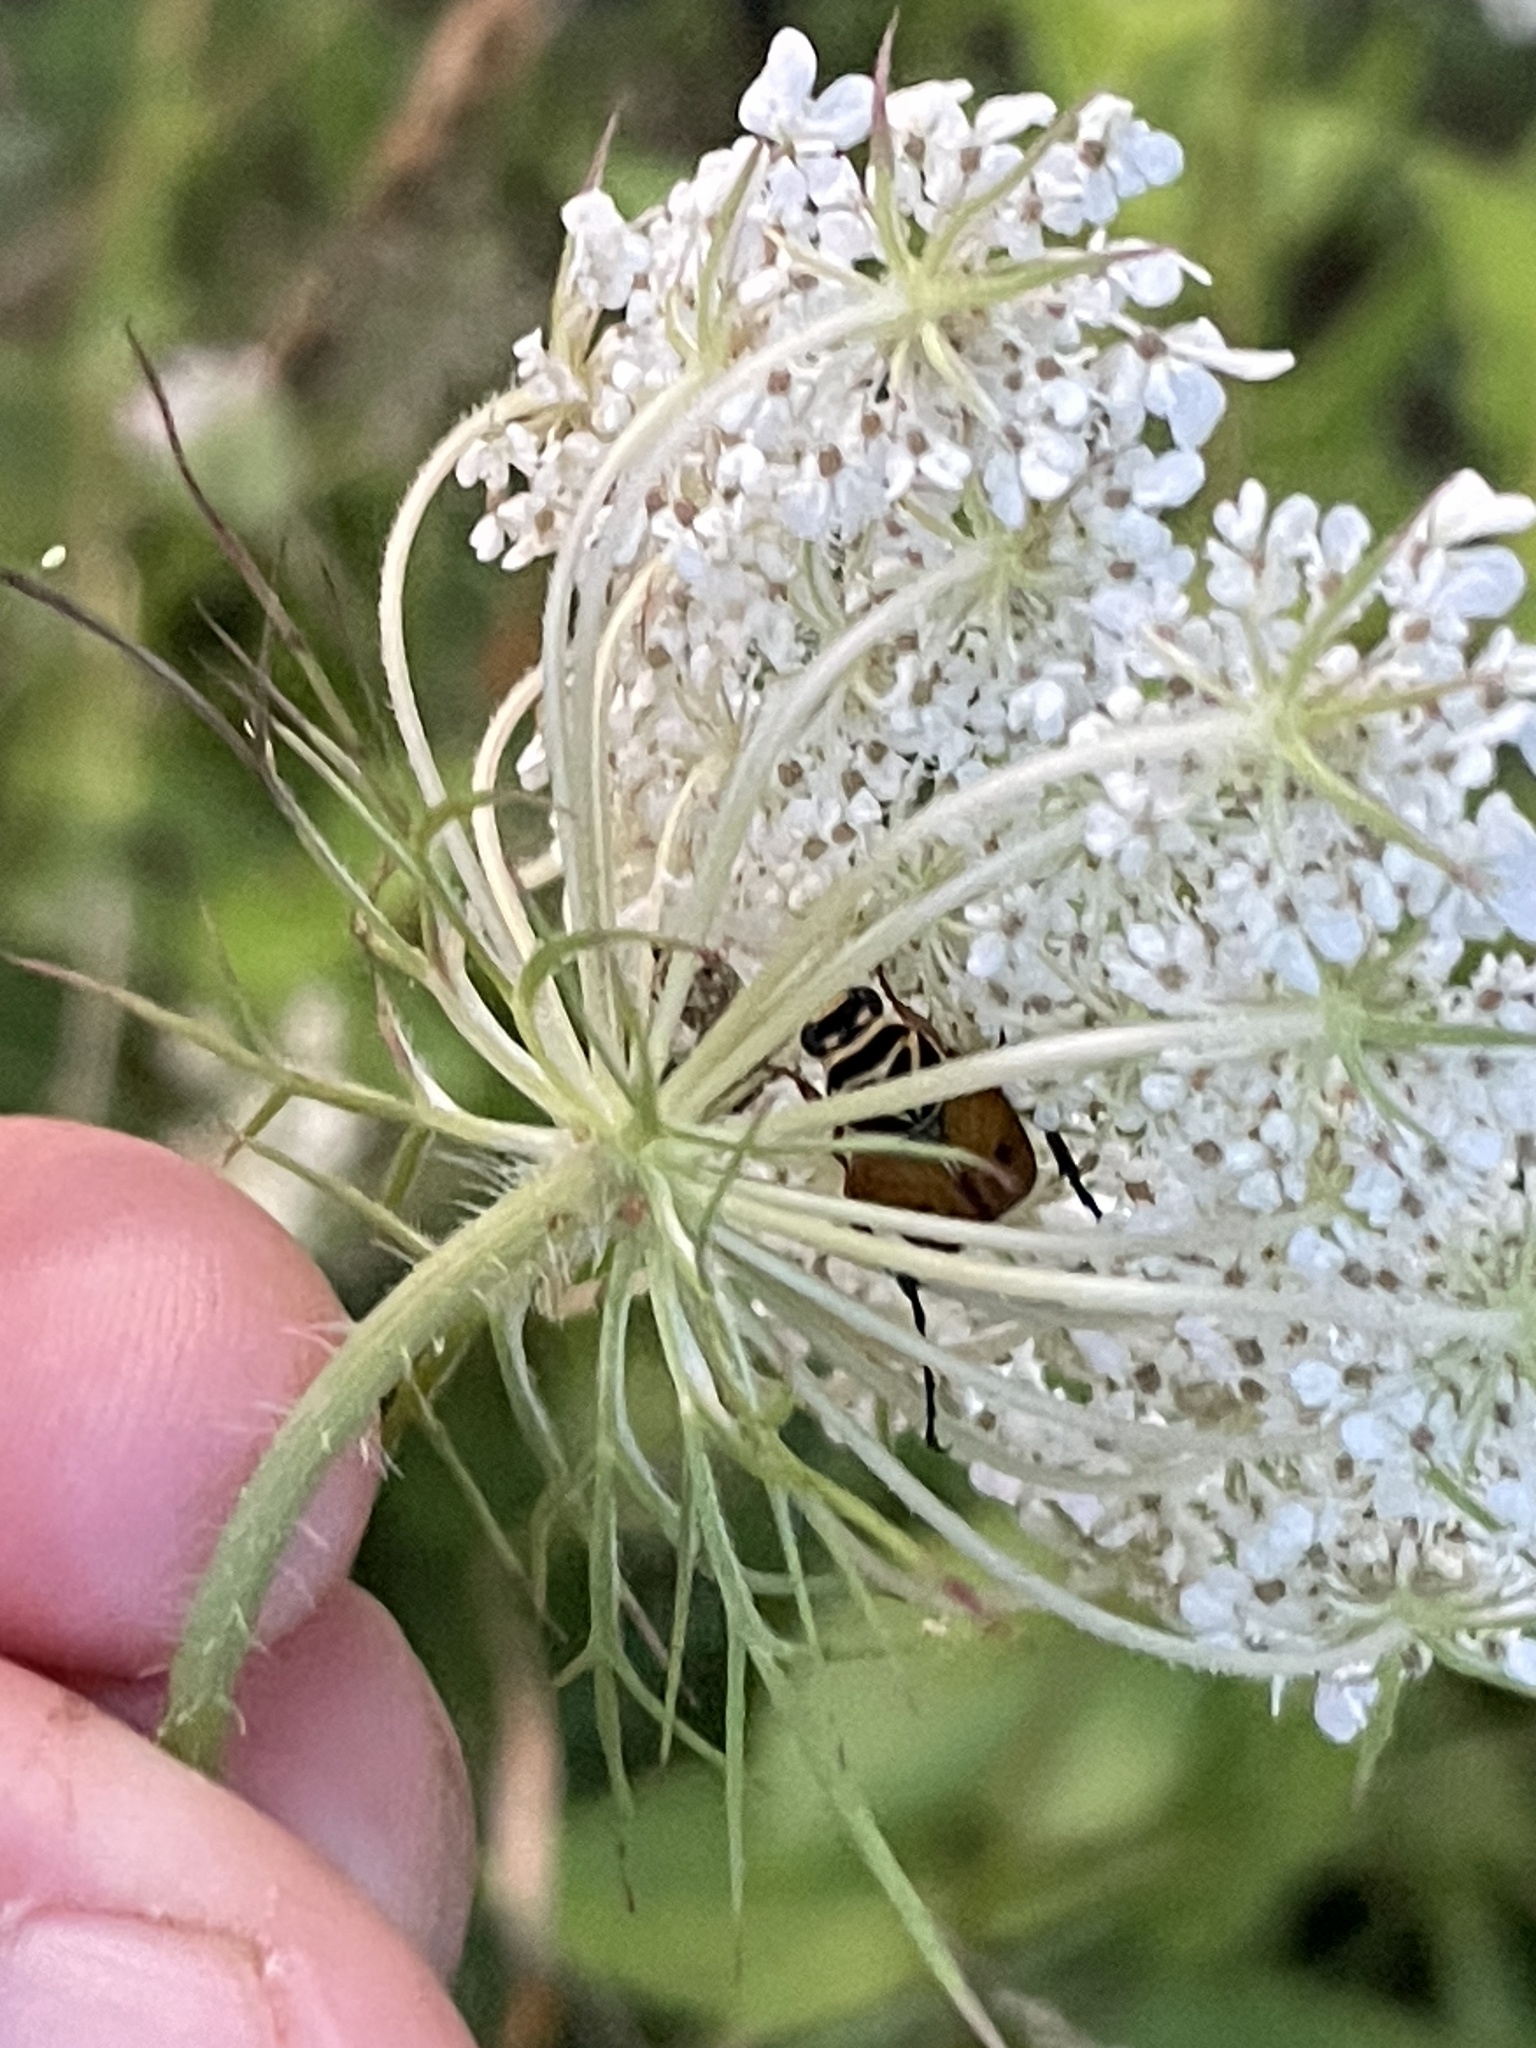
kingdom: Animalia
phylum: Arthropoda
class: Insecta
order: Coleoptera
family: Scarabaeidae
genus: Trigonopeltastes
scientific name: Trigonopeltastes delta
